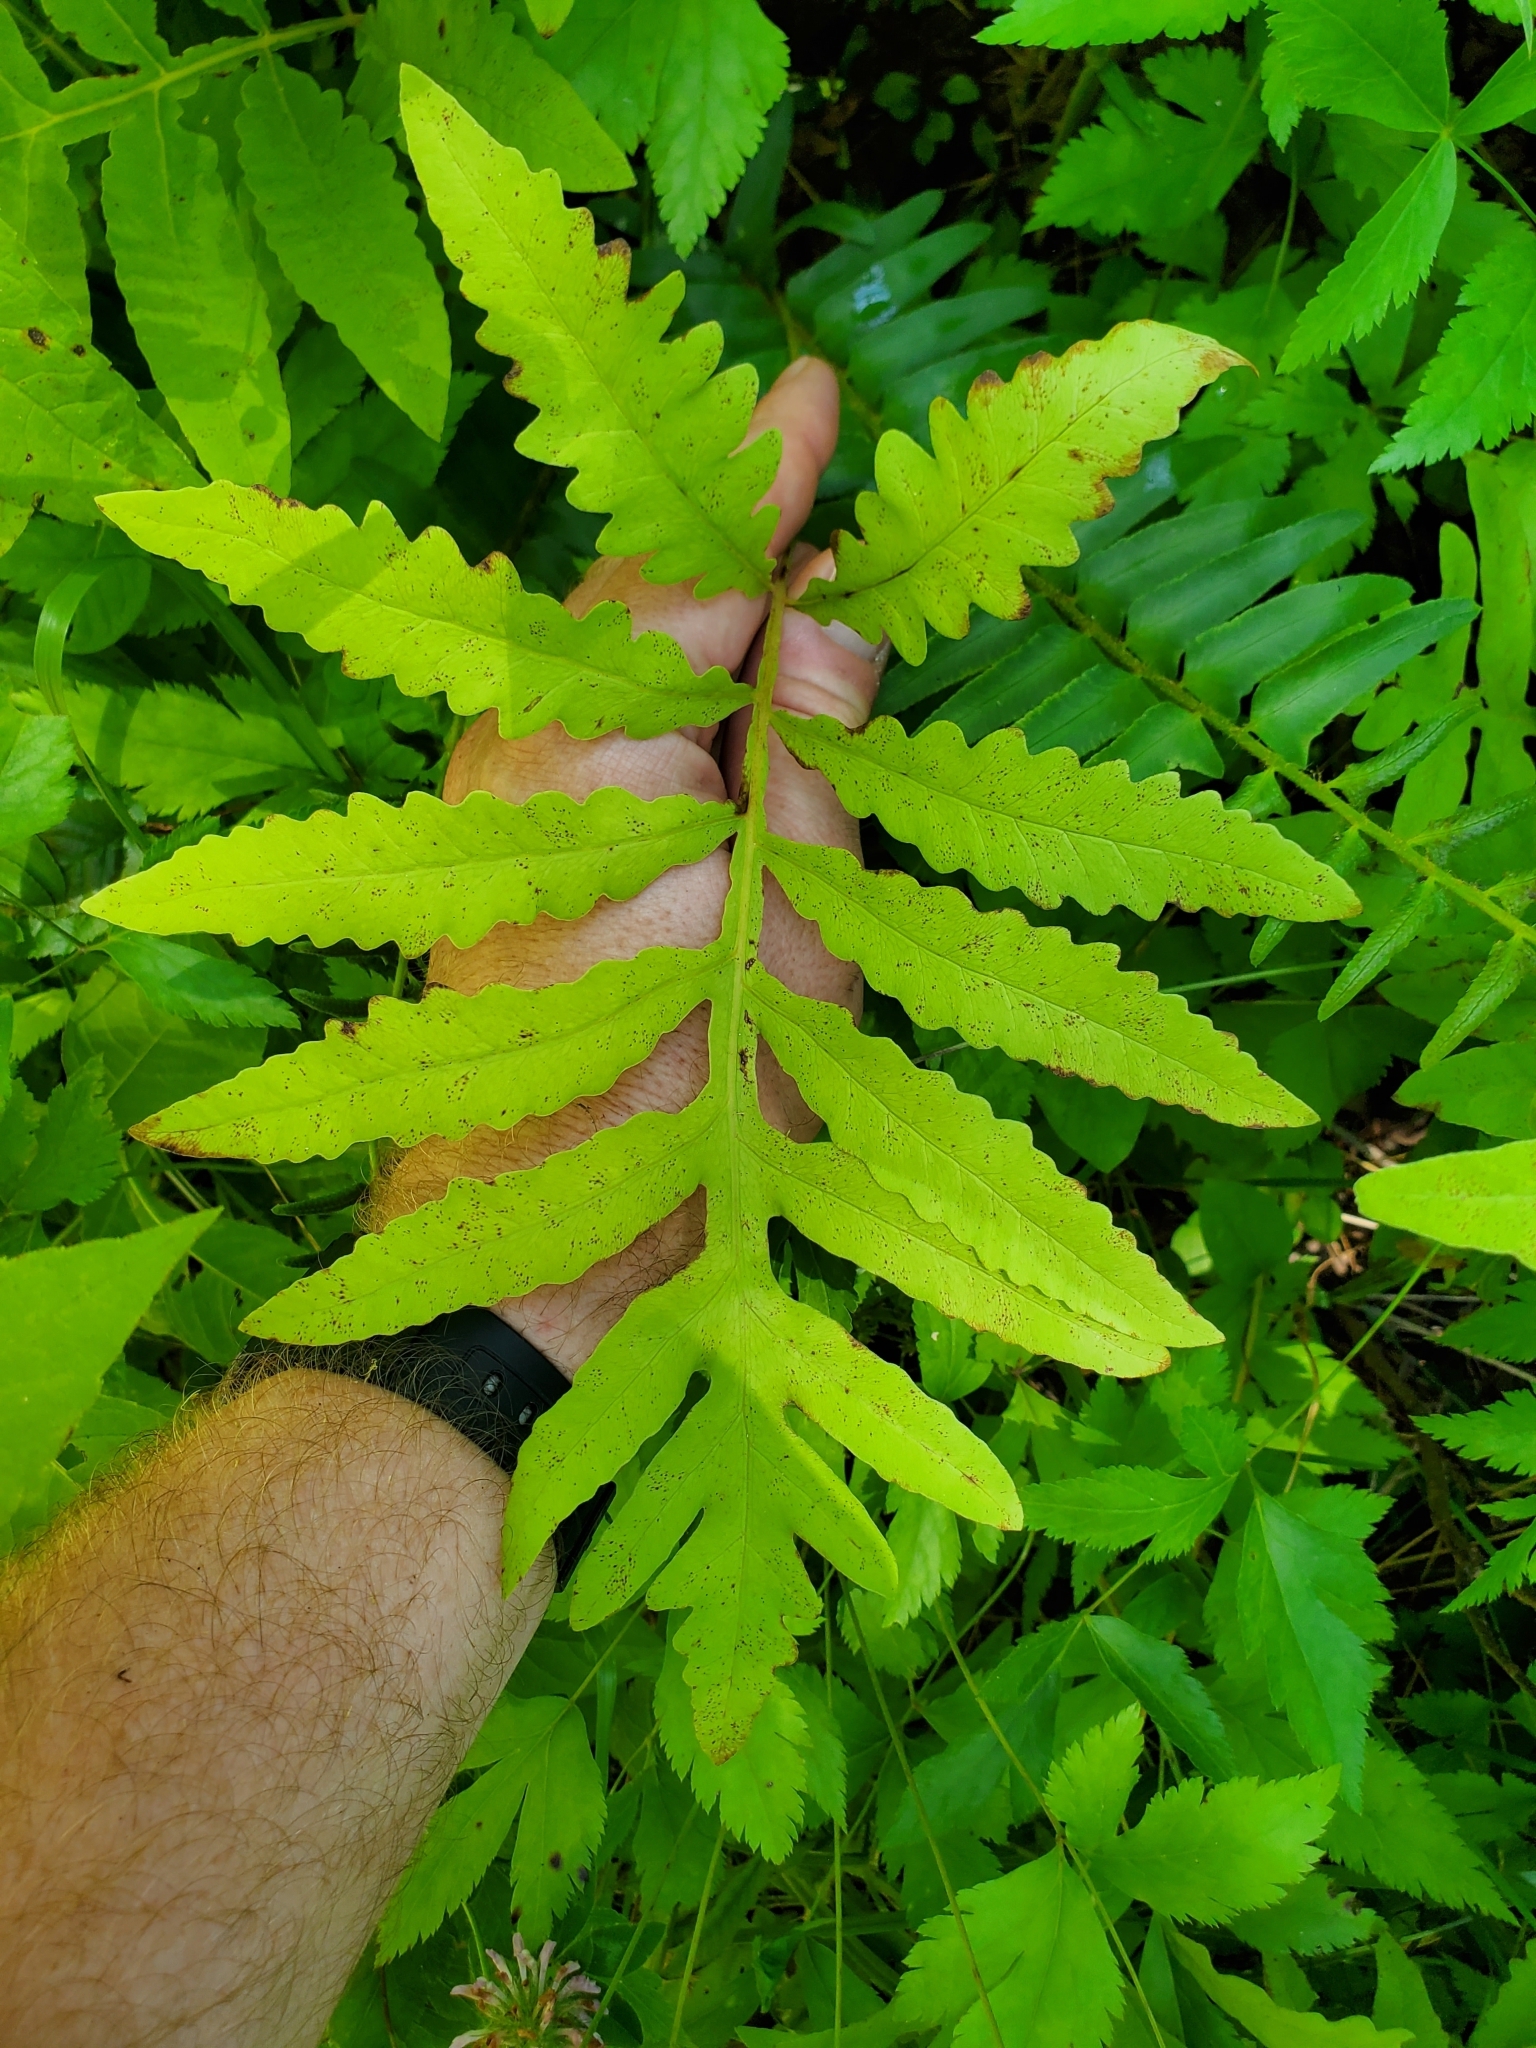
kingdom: Plantae
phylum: Tracheophyta
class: Polypodiopsida
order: Polypodiales
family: Onocleaceae
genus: Onoclea
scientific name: Onoclea sensibilis
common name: Sensitive fern
